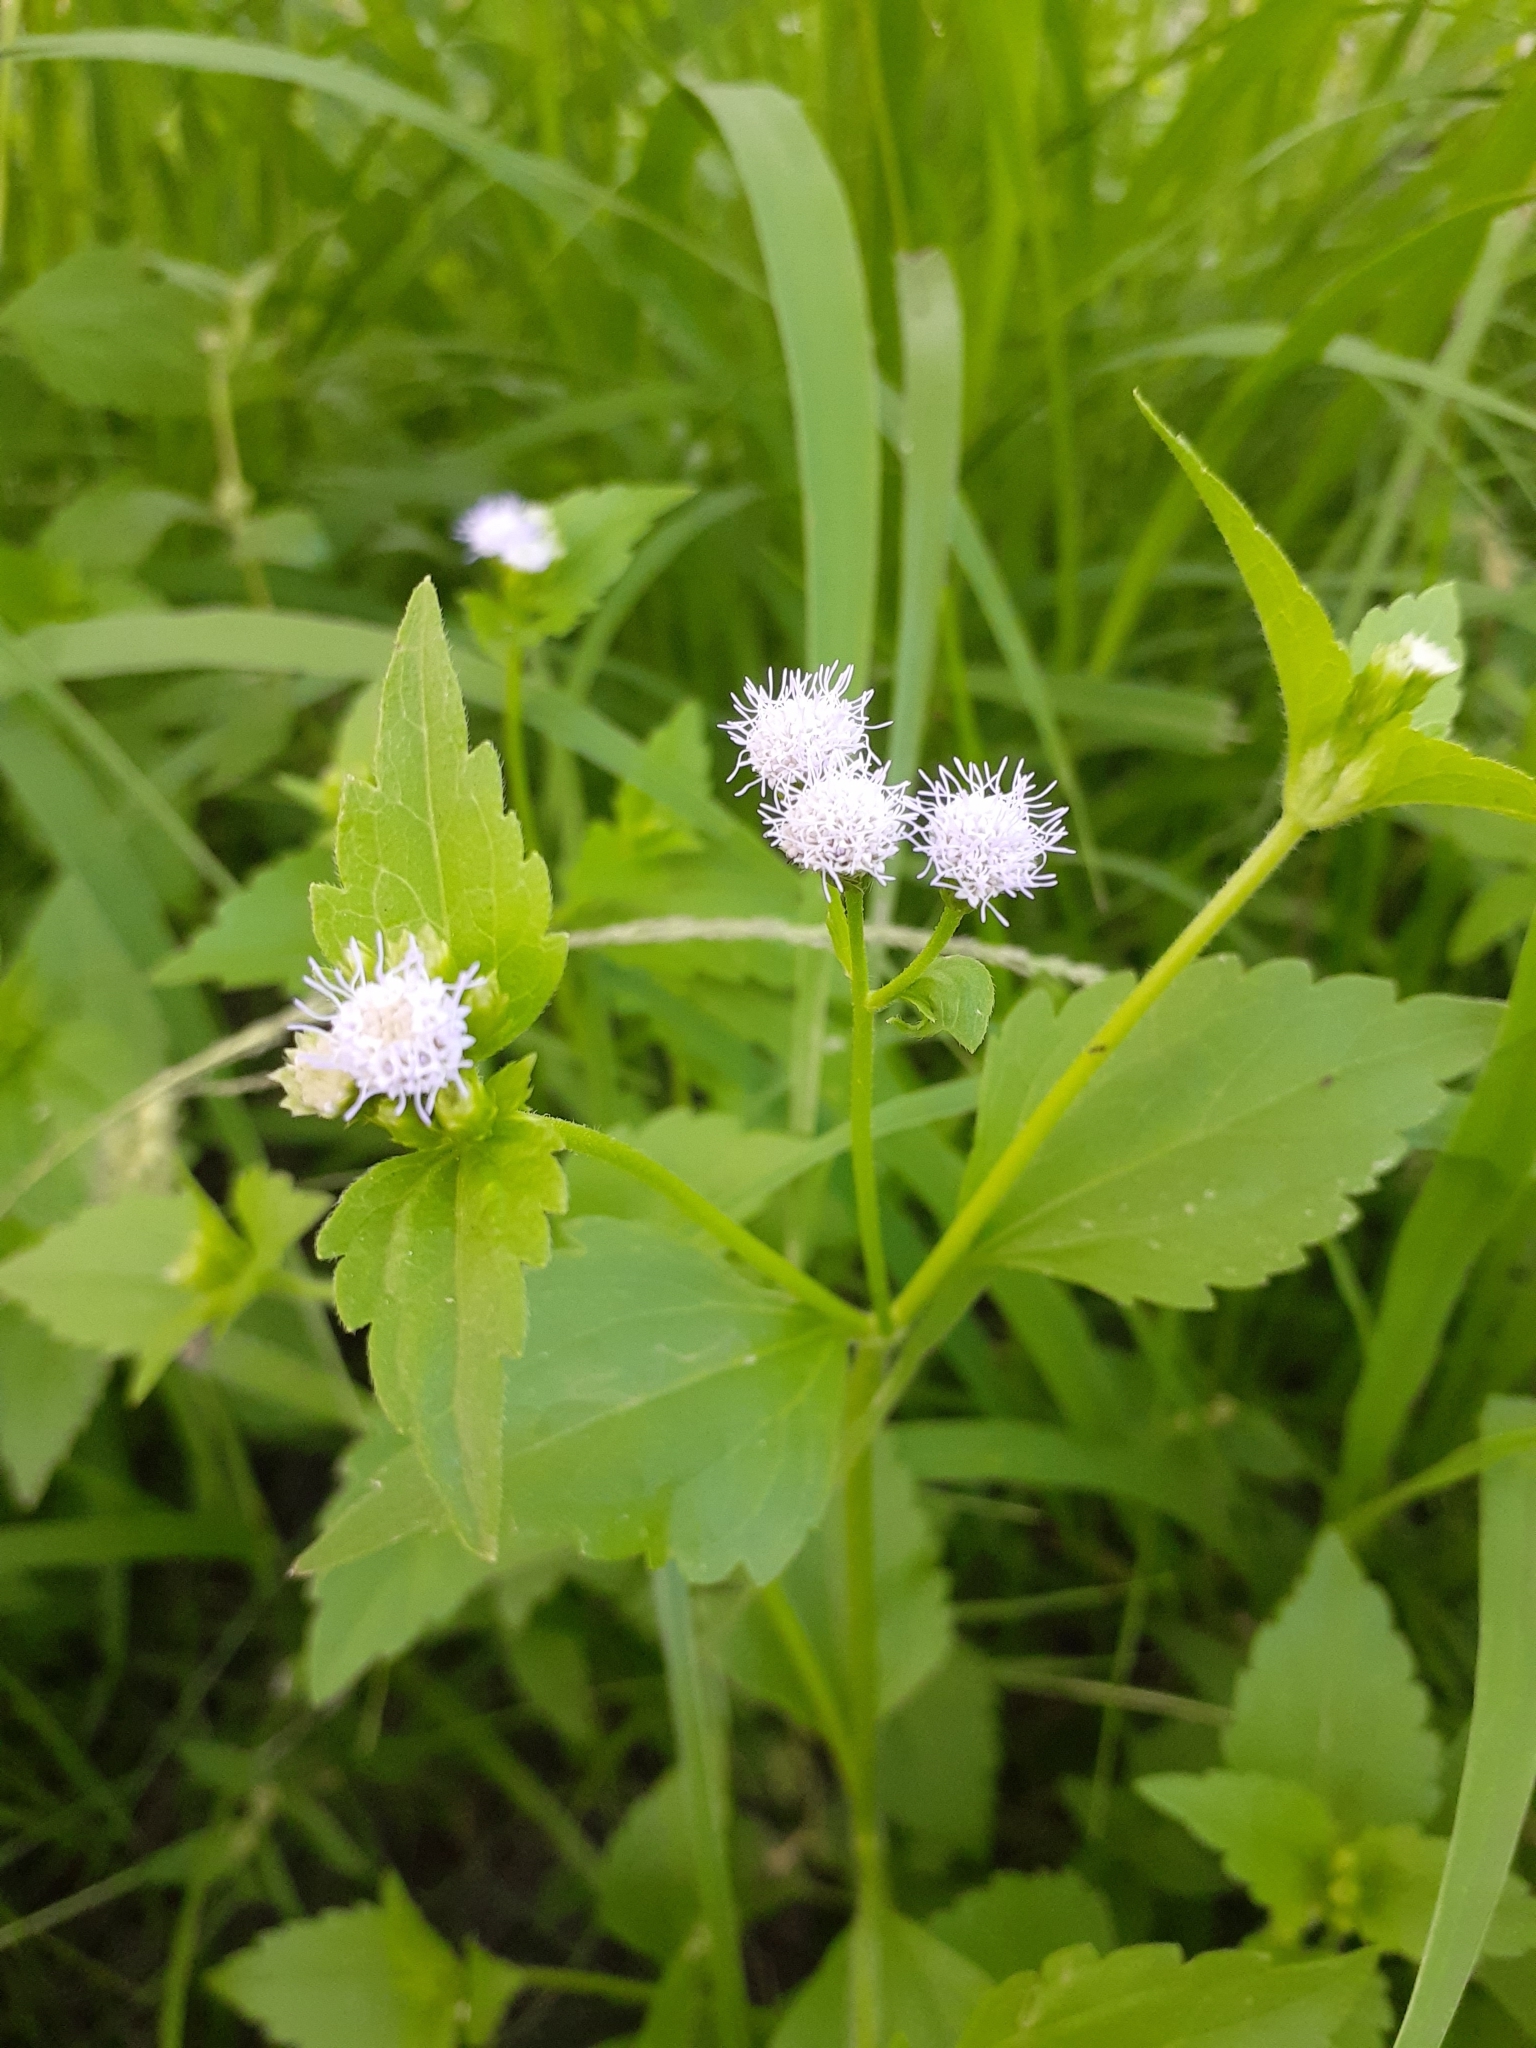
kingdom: Plantae
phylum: Tracheophyta
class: Magnoliopsida
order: Asterales
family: Asteraceae
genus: Praxelis
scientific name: Praxelis clematidea
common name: Praxelis
